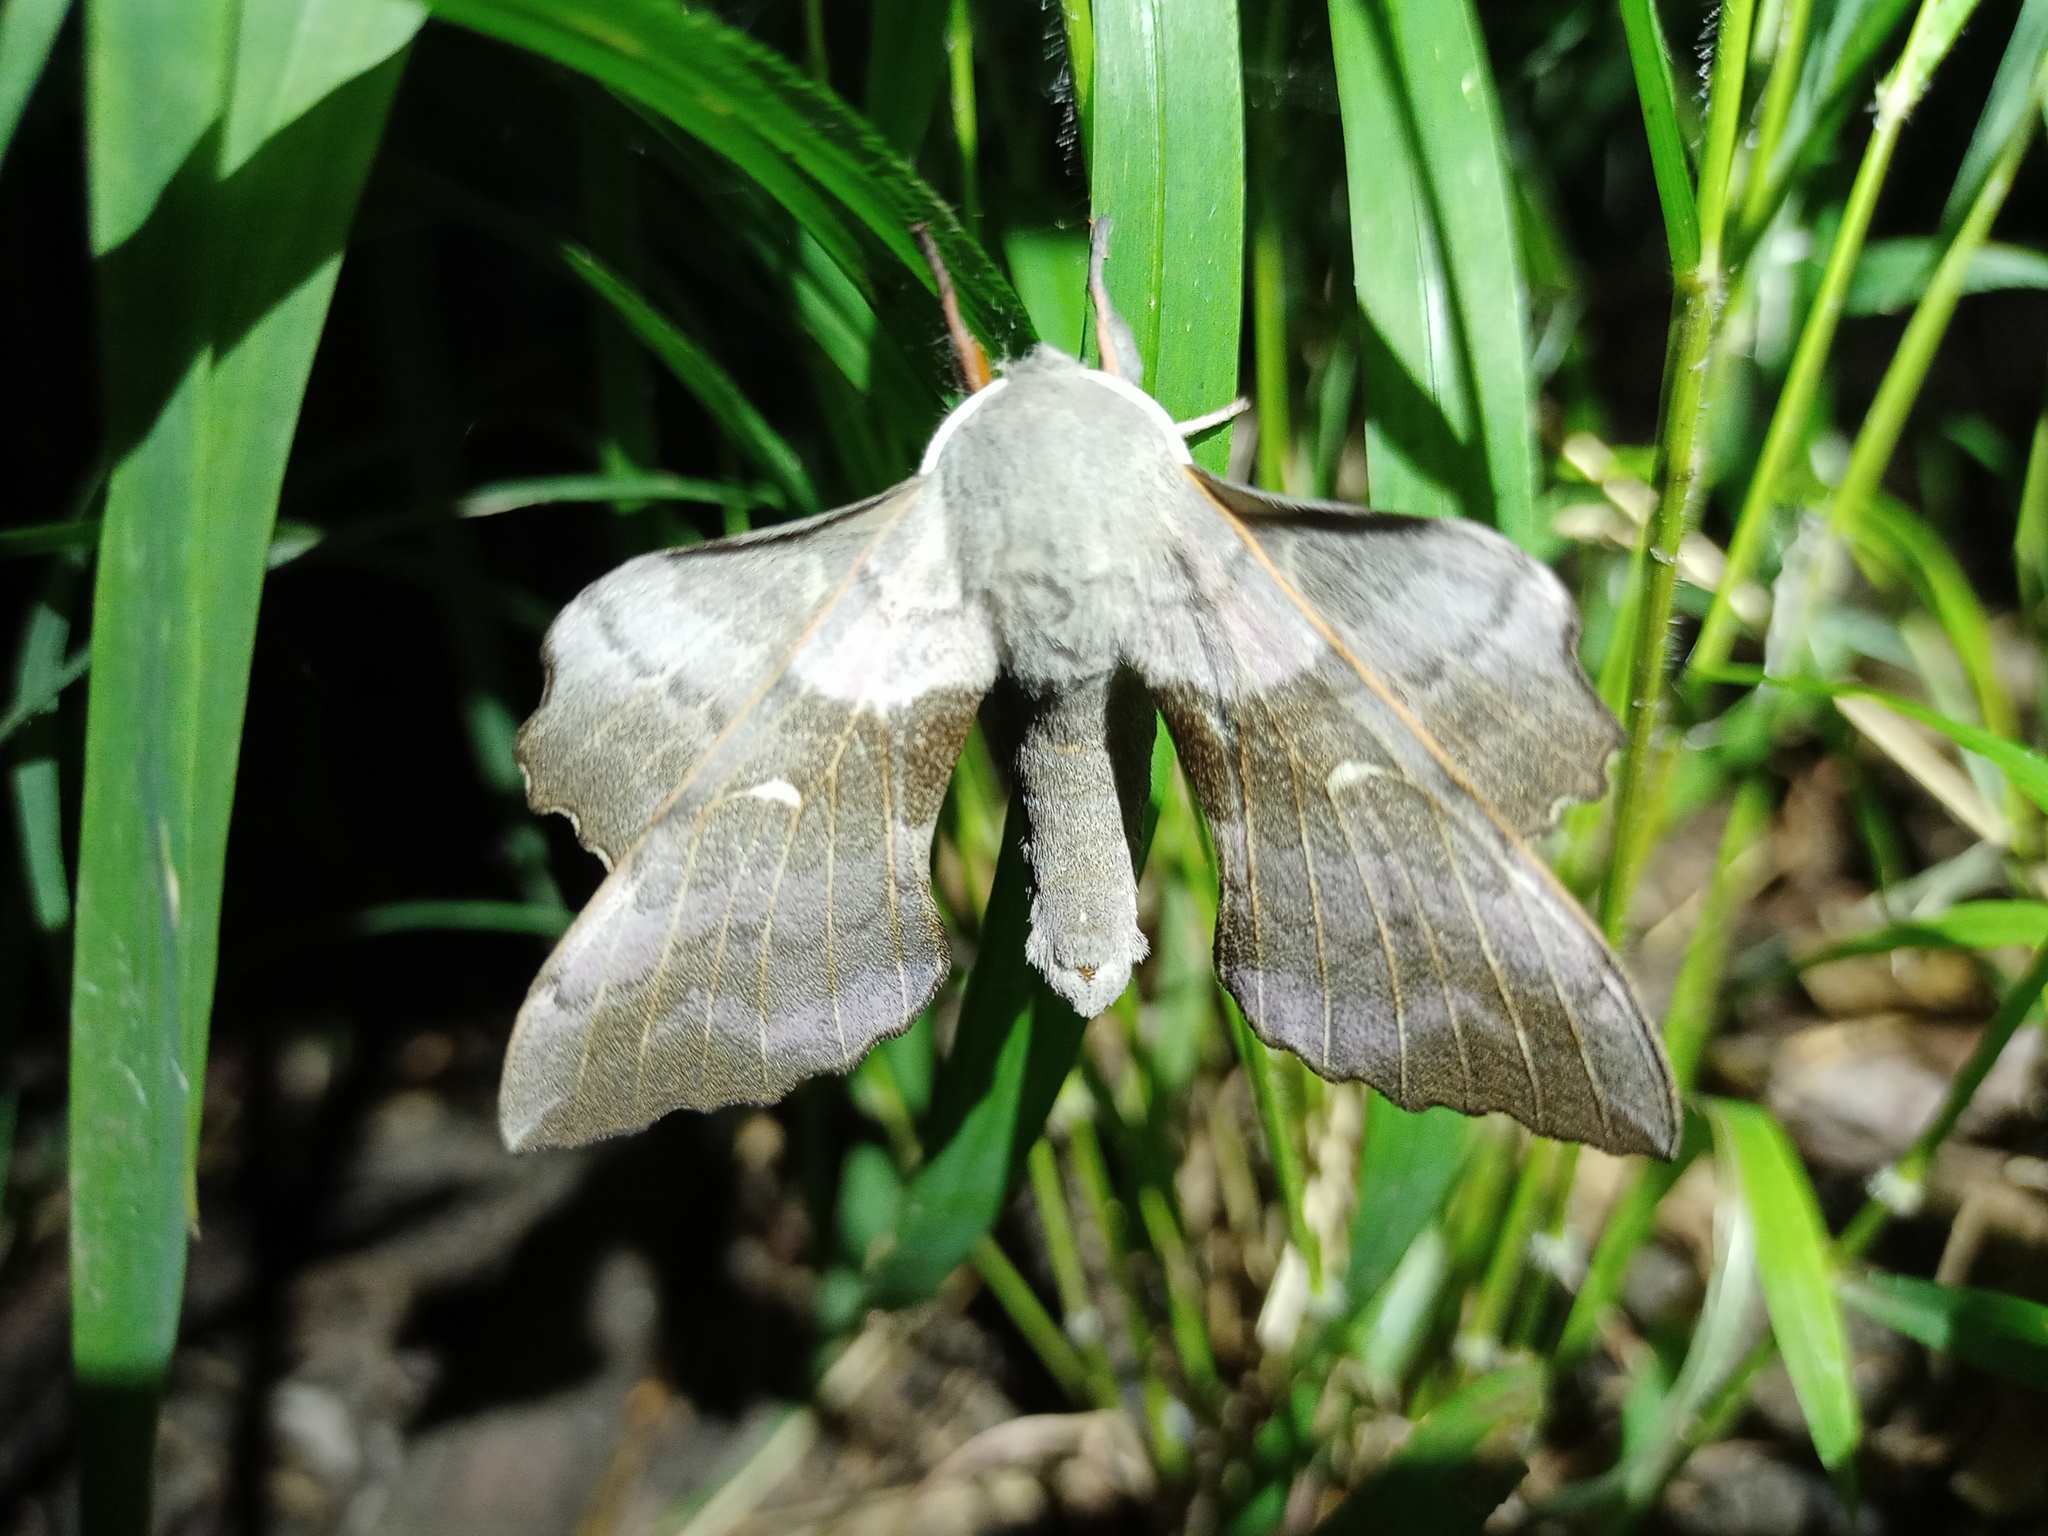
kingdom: Animalia
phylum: Arthropoda
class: Insecta
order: Lepidoptera
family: Sphingidae
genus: Laothoe
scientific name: Laothoe populi
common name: Poplar hawk-moth
